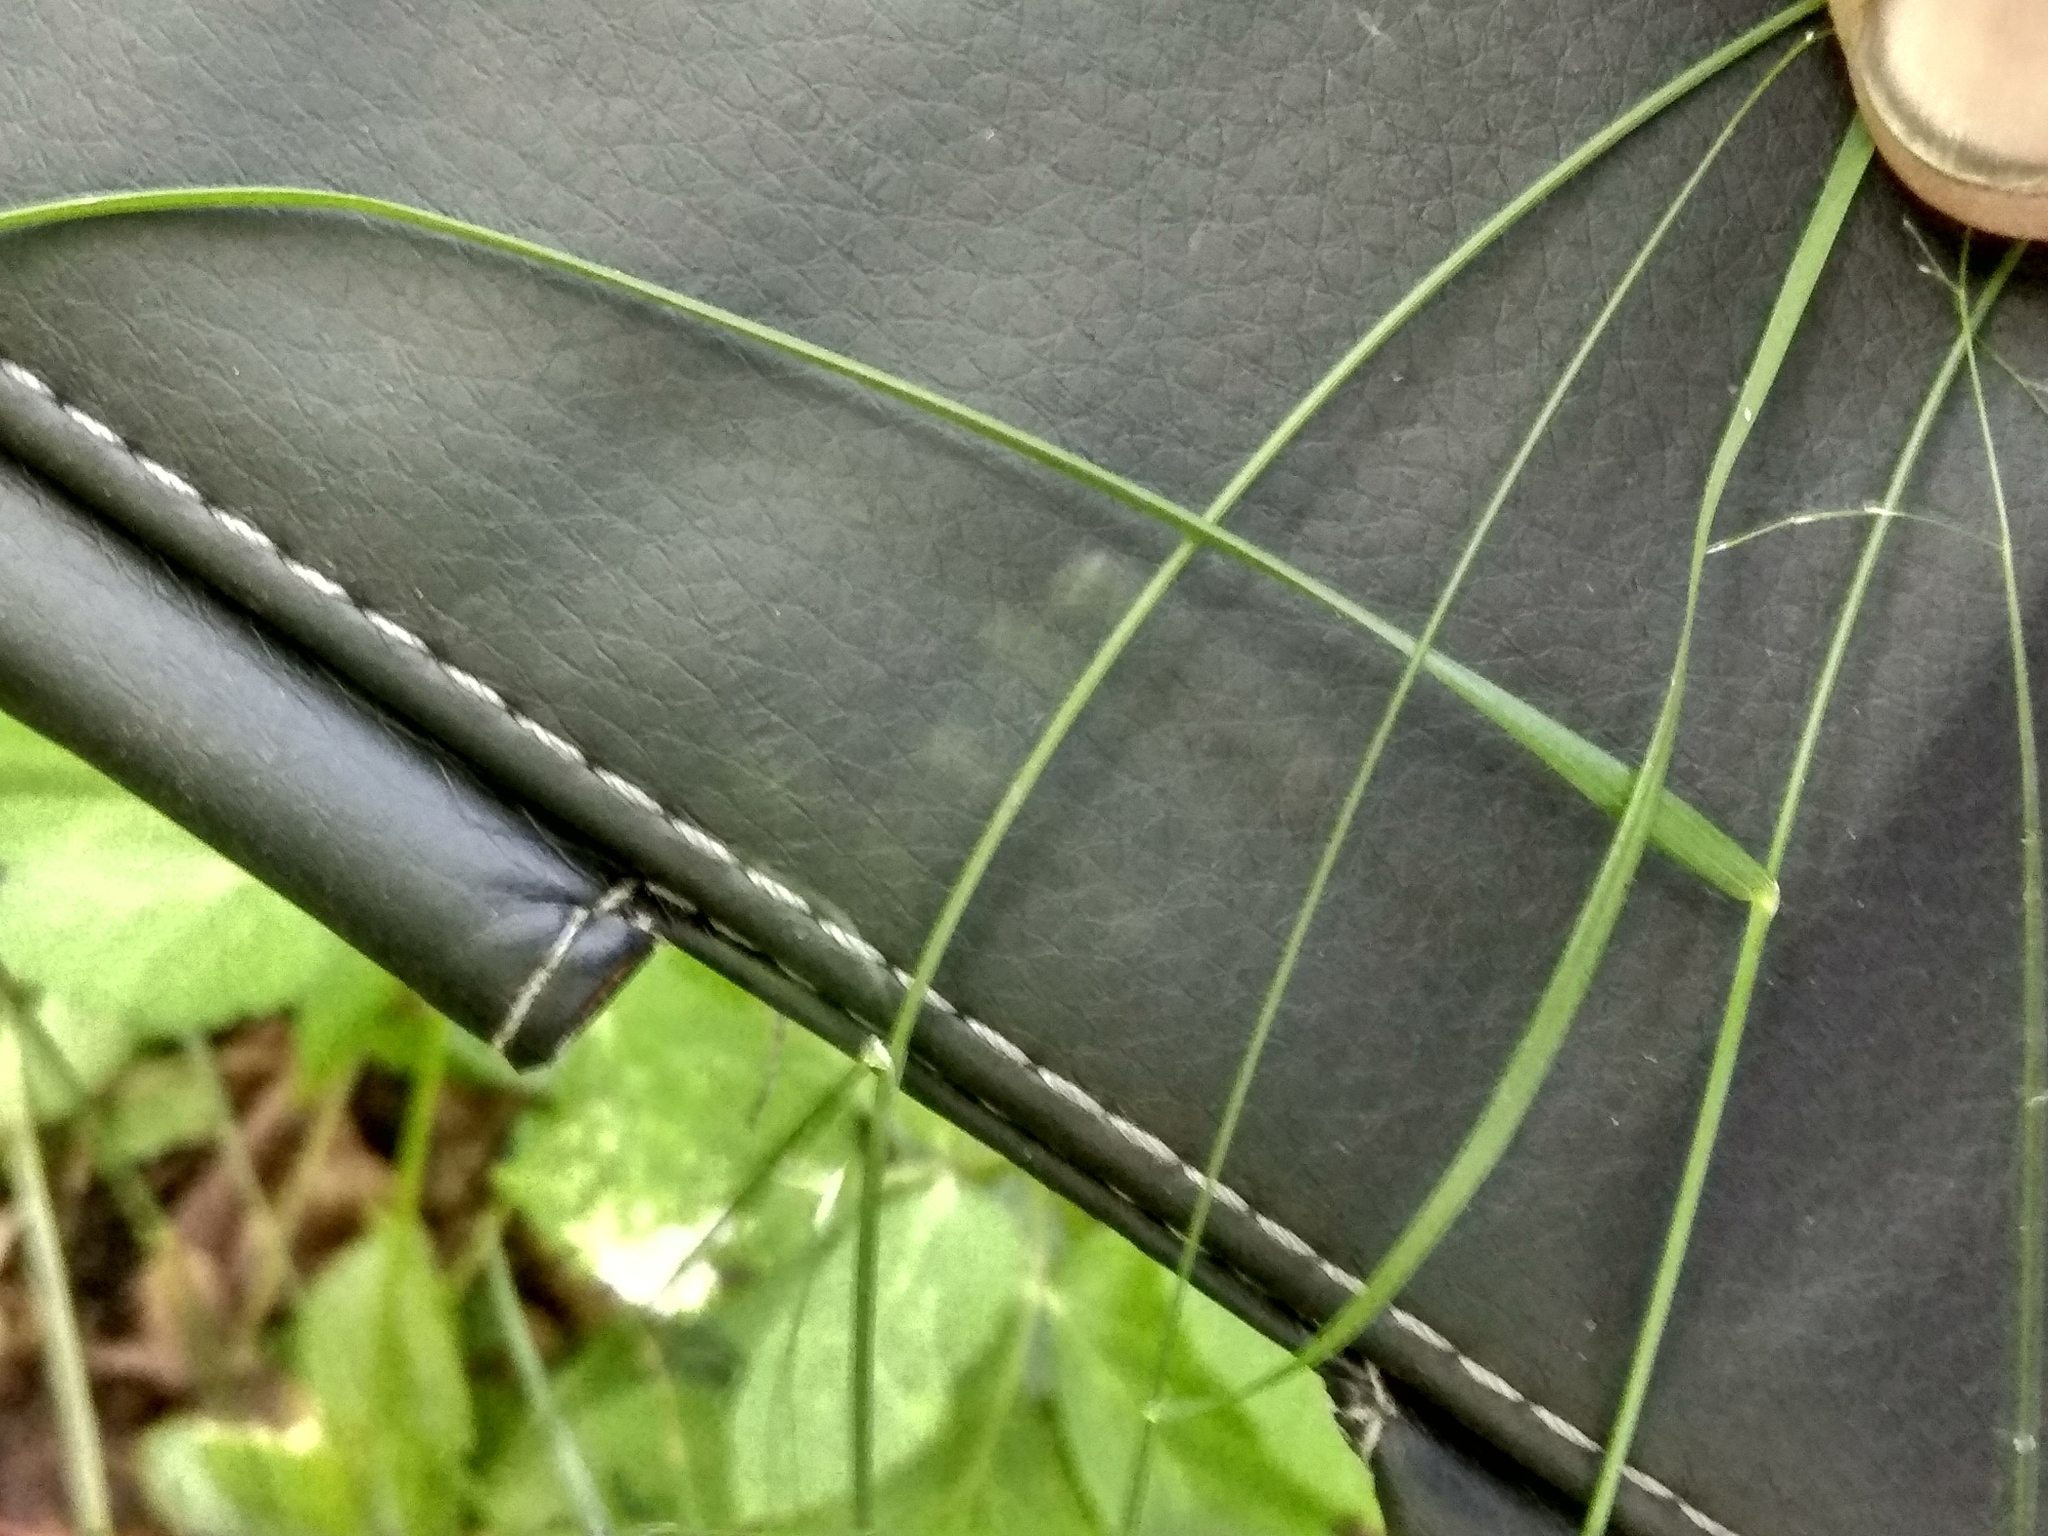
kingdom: Plantae
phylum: Tracheophyta
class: Liliopsida
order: Poales
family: Poaceae
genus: Poa
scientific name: Poa nemoralis
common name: Wood bluegrass
